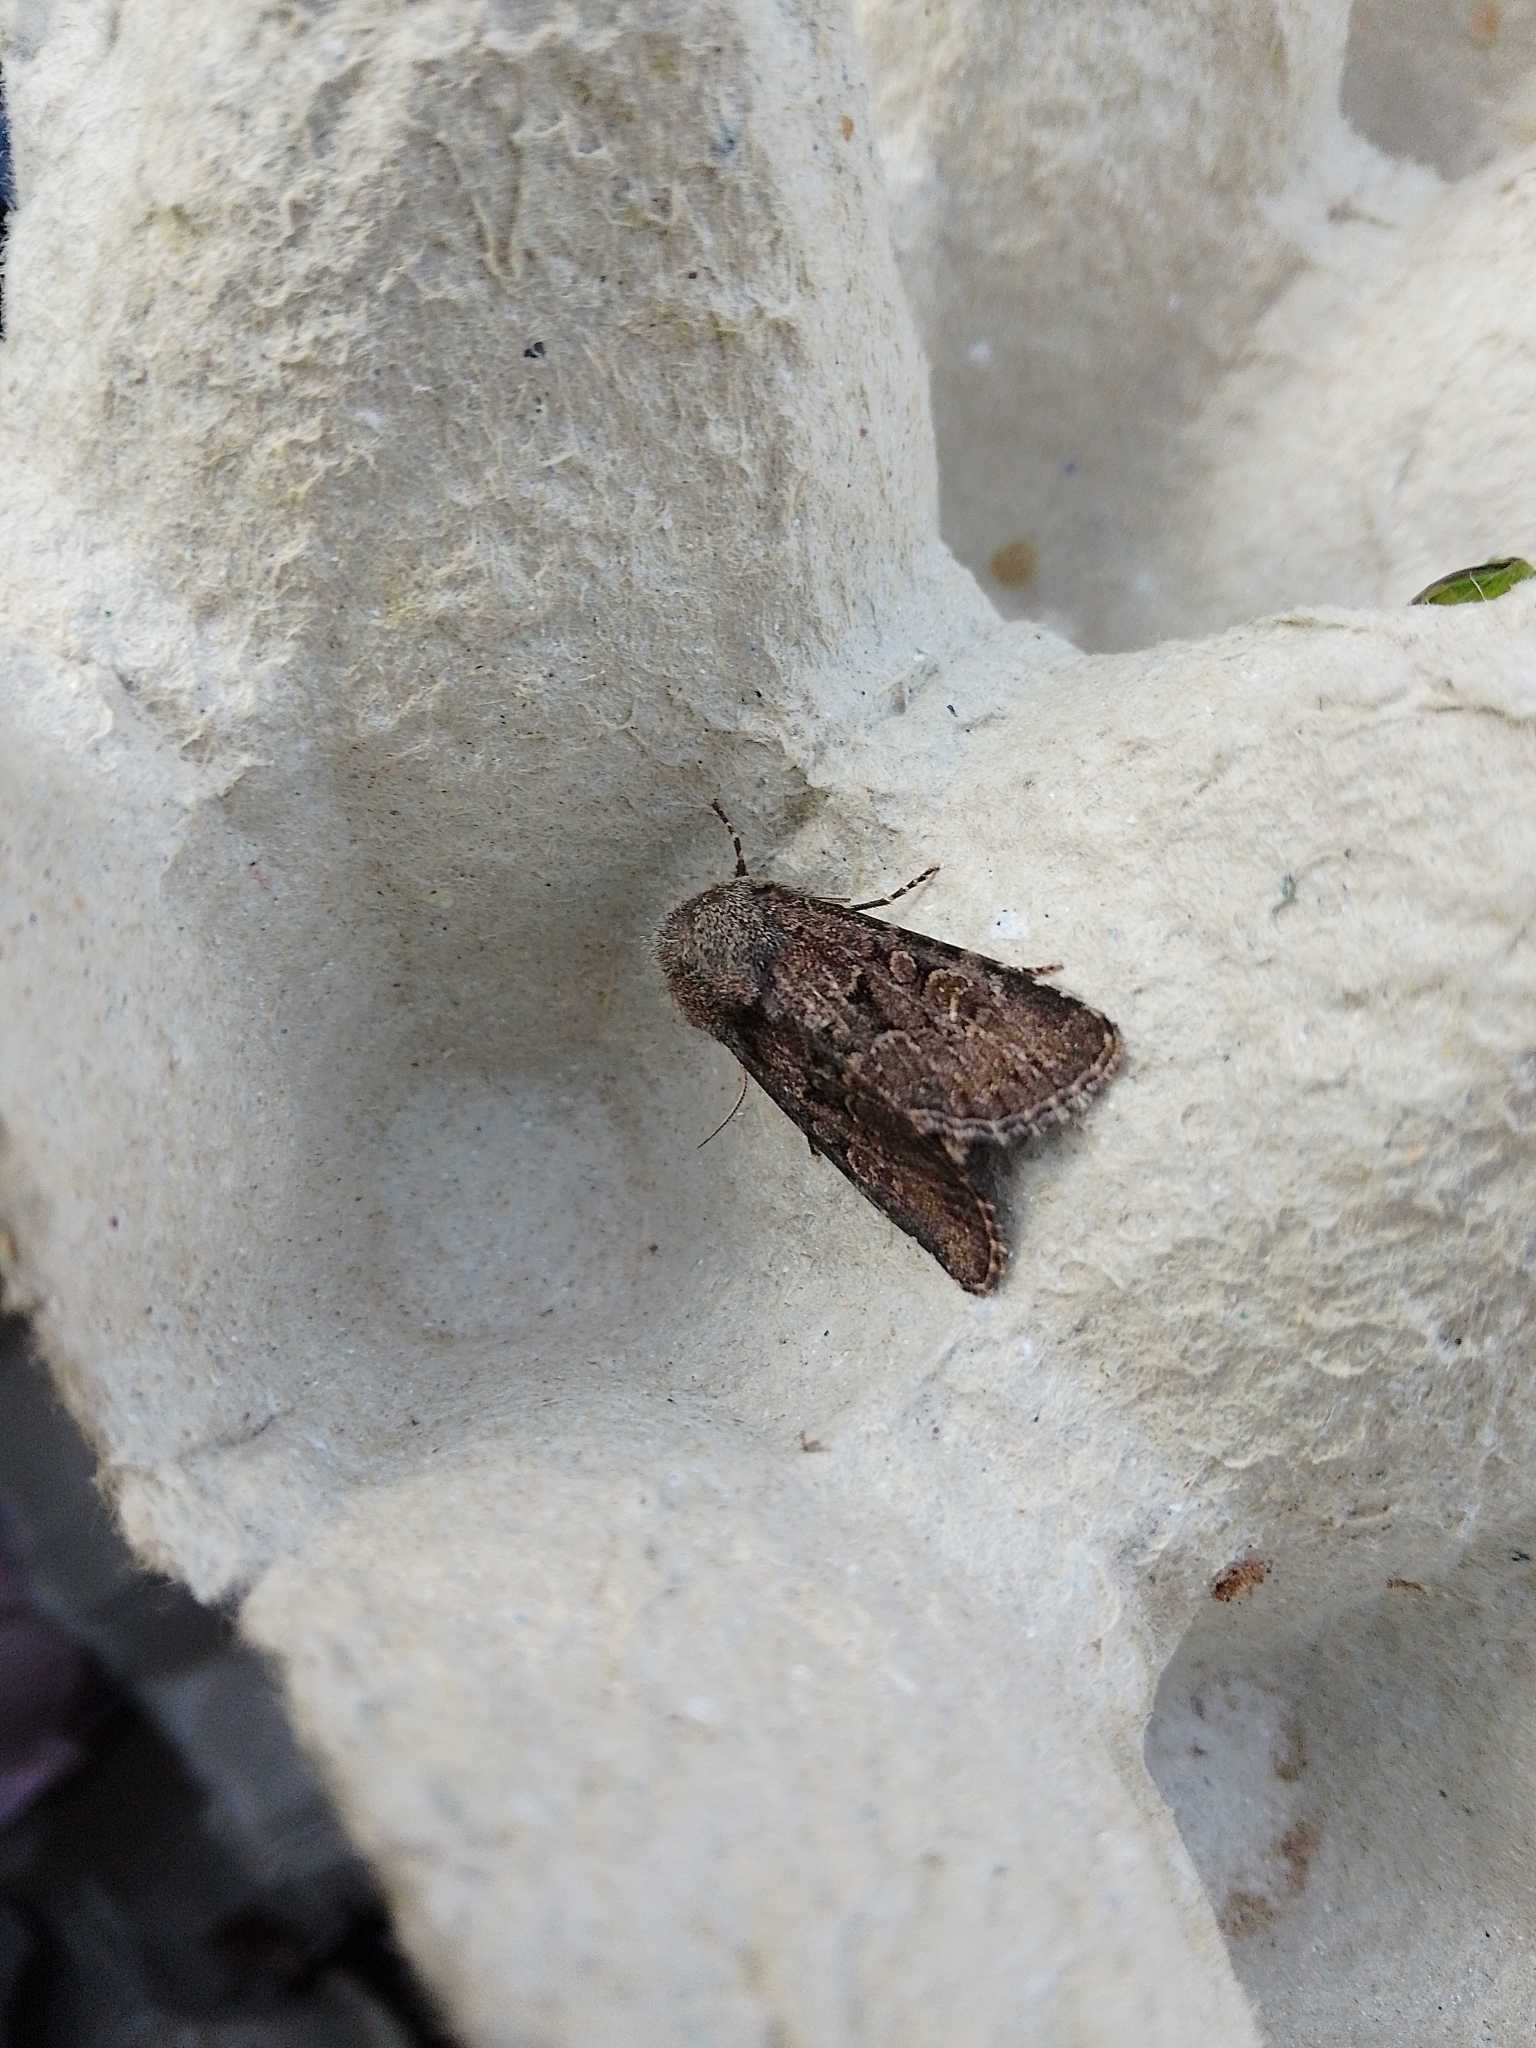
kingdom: Animalia
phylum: Arthropoda
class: Insecta
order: Lepidoptera
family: Noctuidae
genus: Luperina
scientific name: Luperina testacea
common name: Flounced rustic
